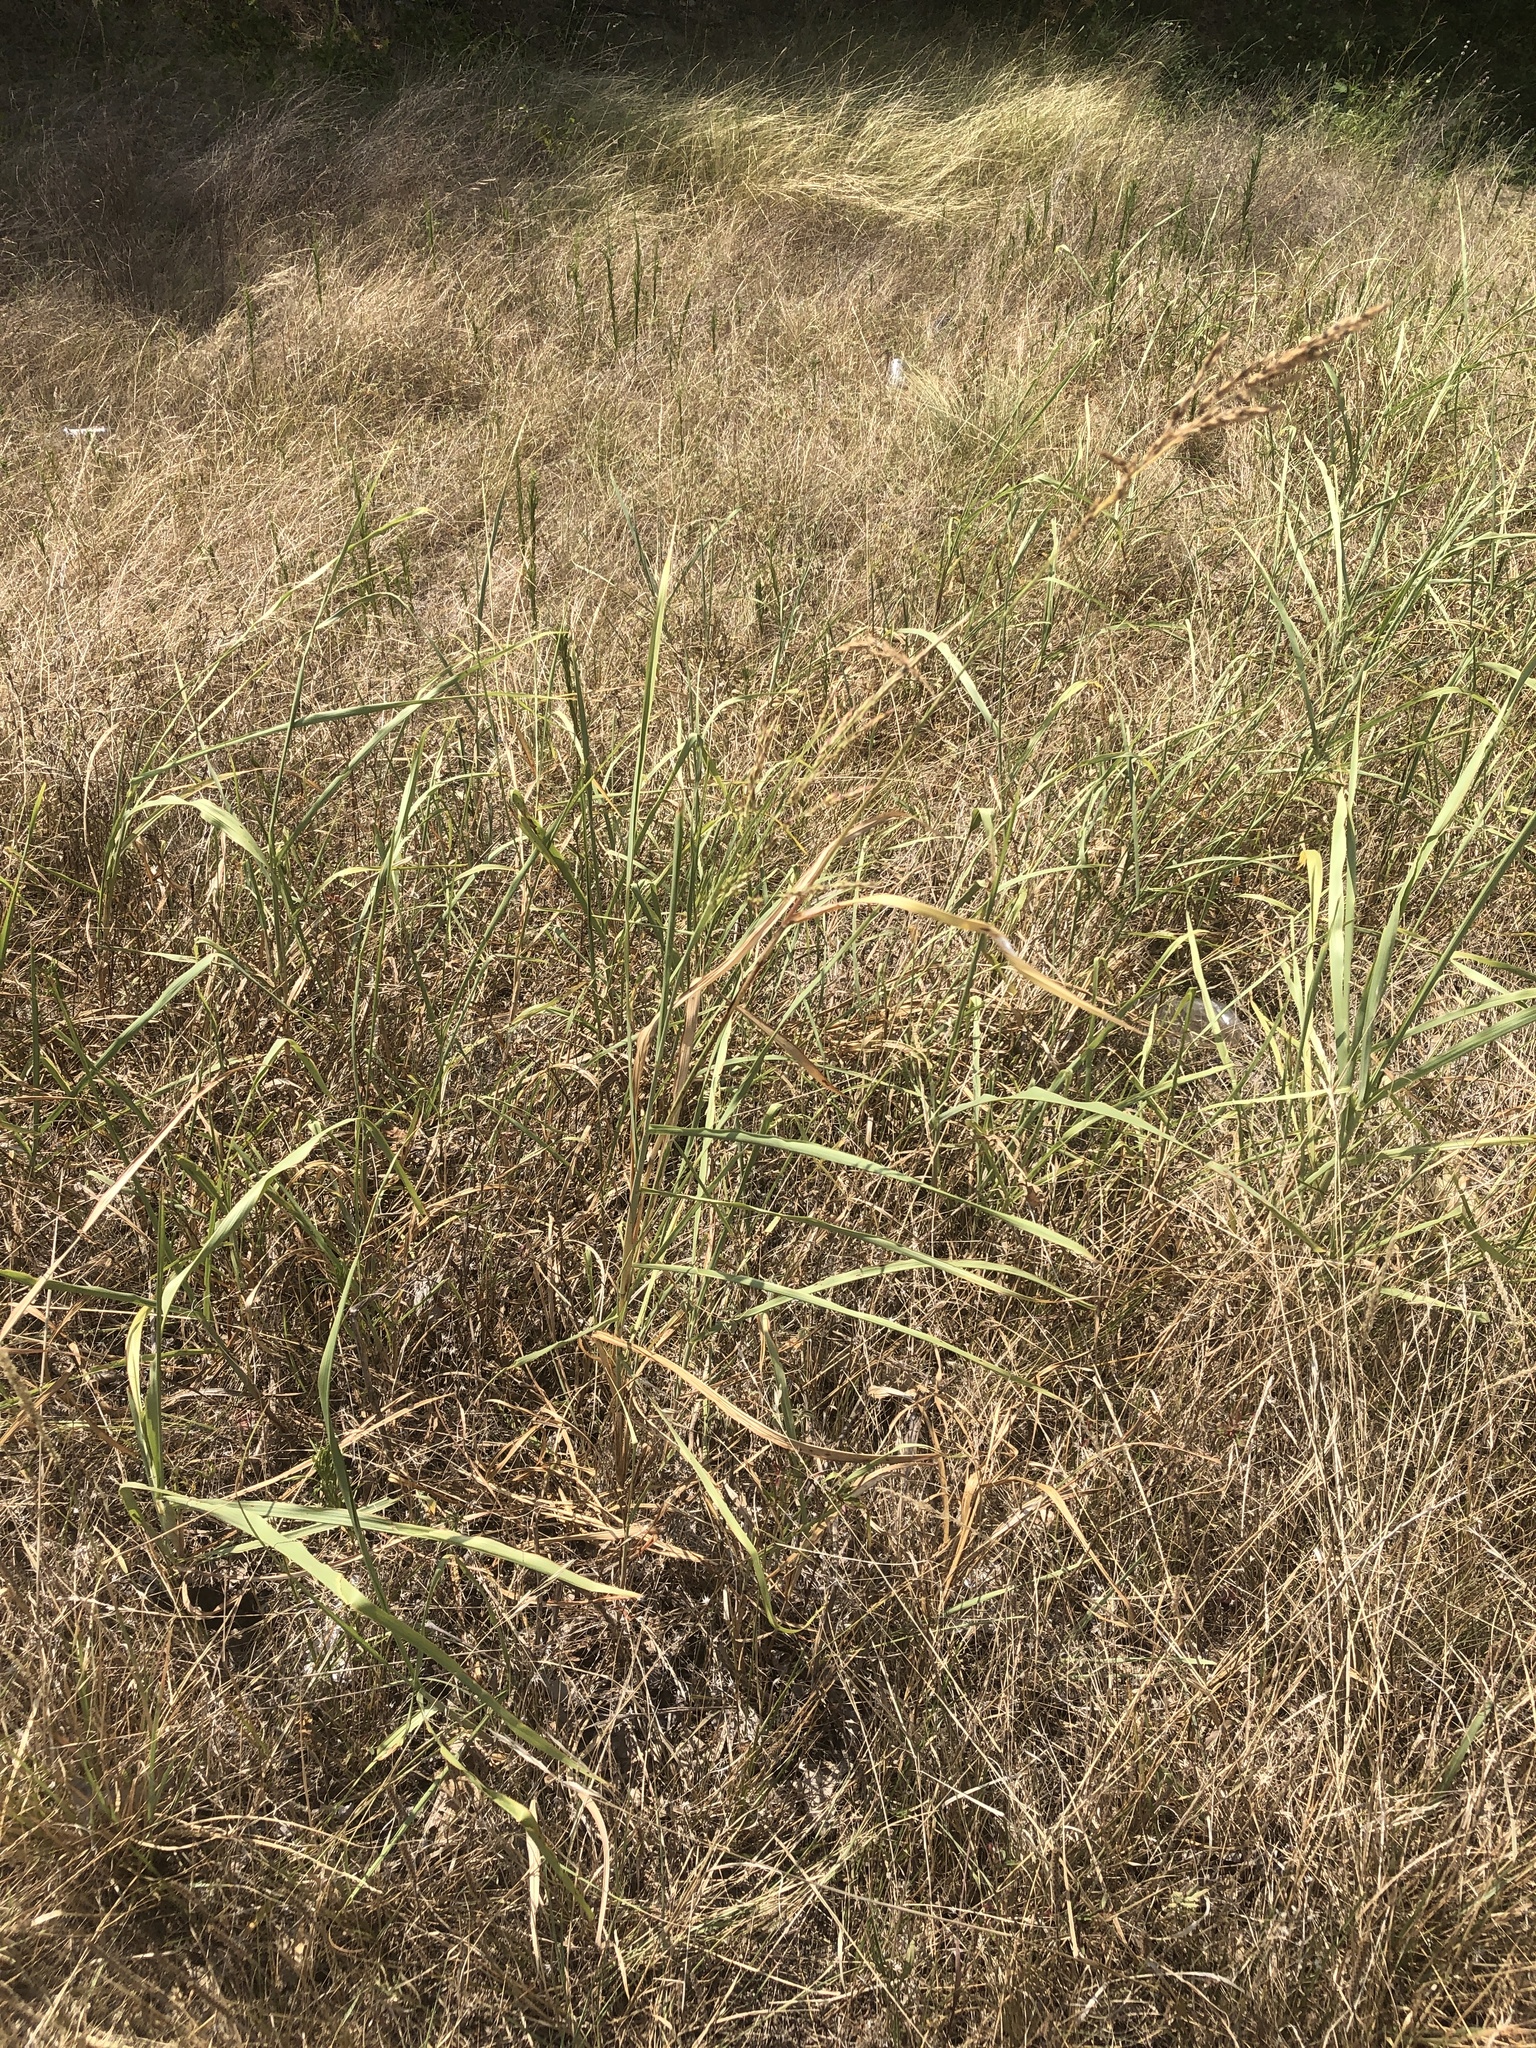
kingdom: Plantae
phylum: Tracheophyta
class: Liliopsida
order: Poales
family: Poaceae
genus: Sorghum
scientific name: Sorghum halepense
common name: Johnson-grass
